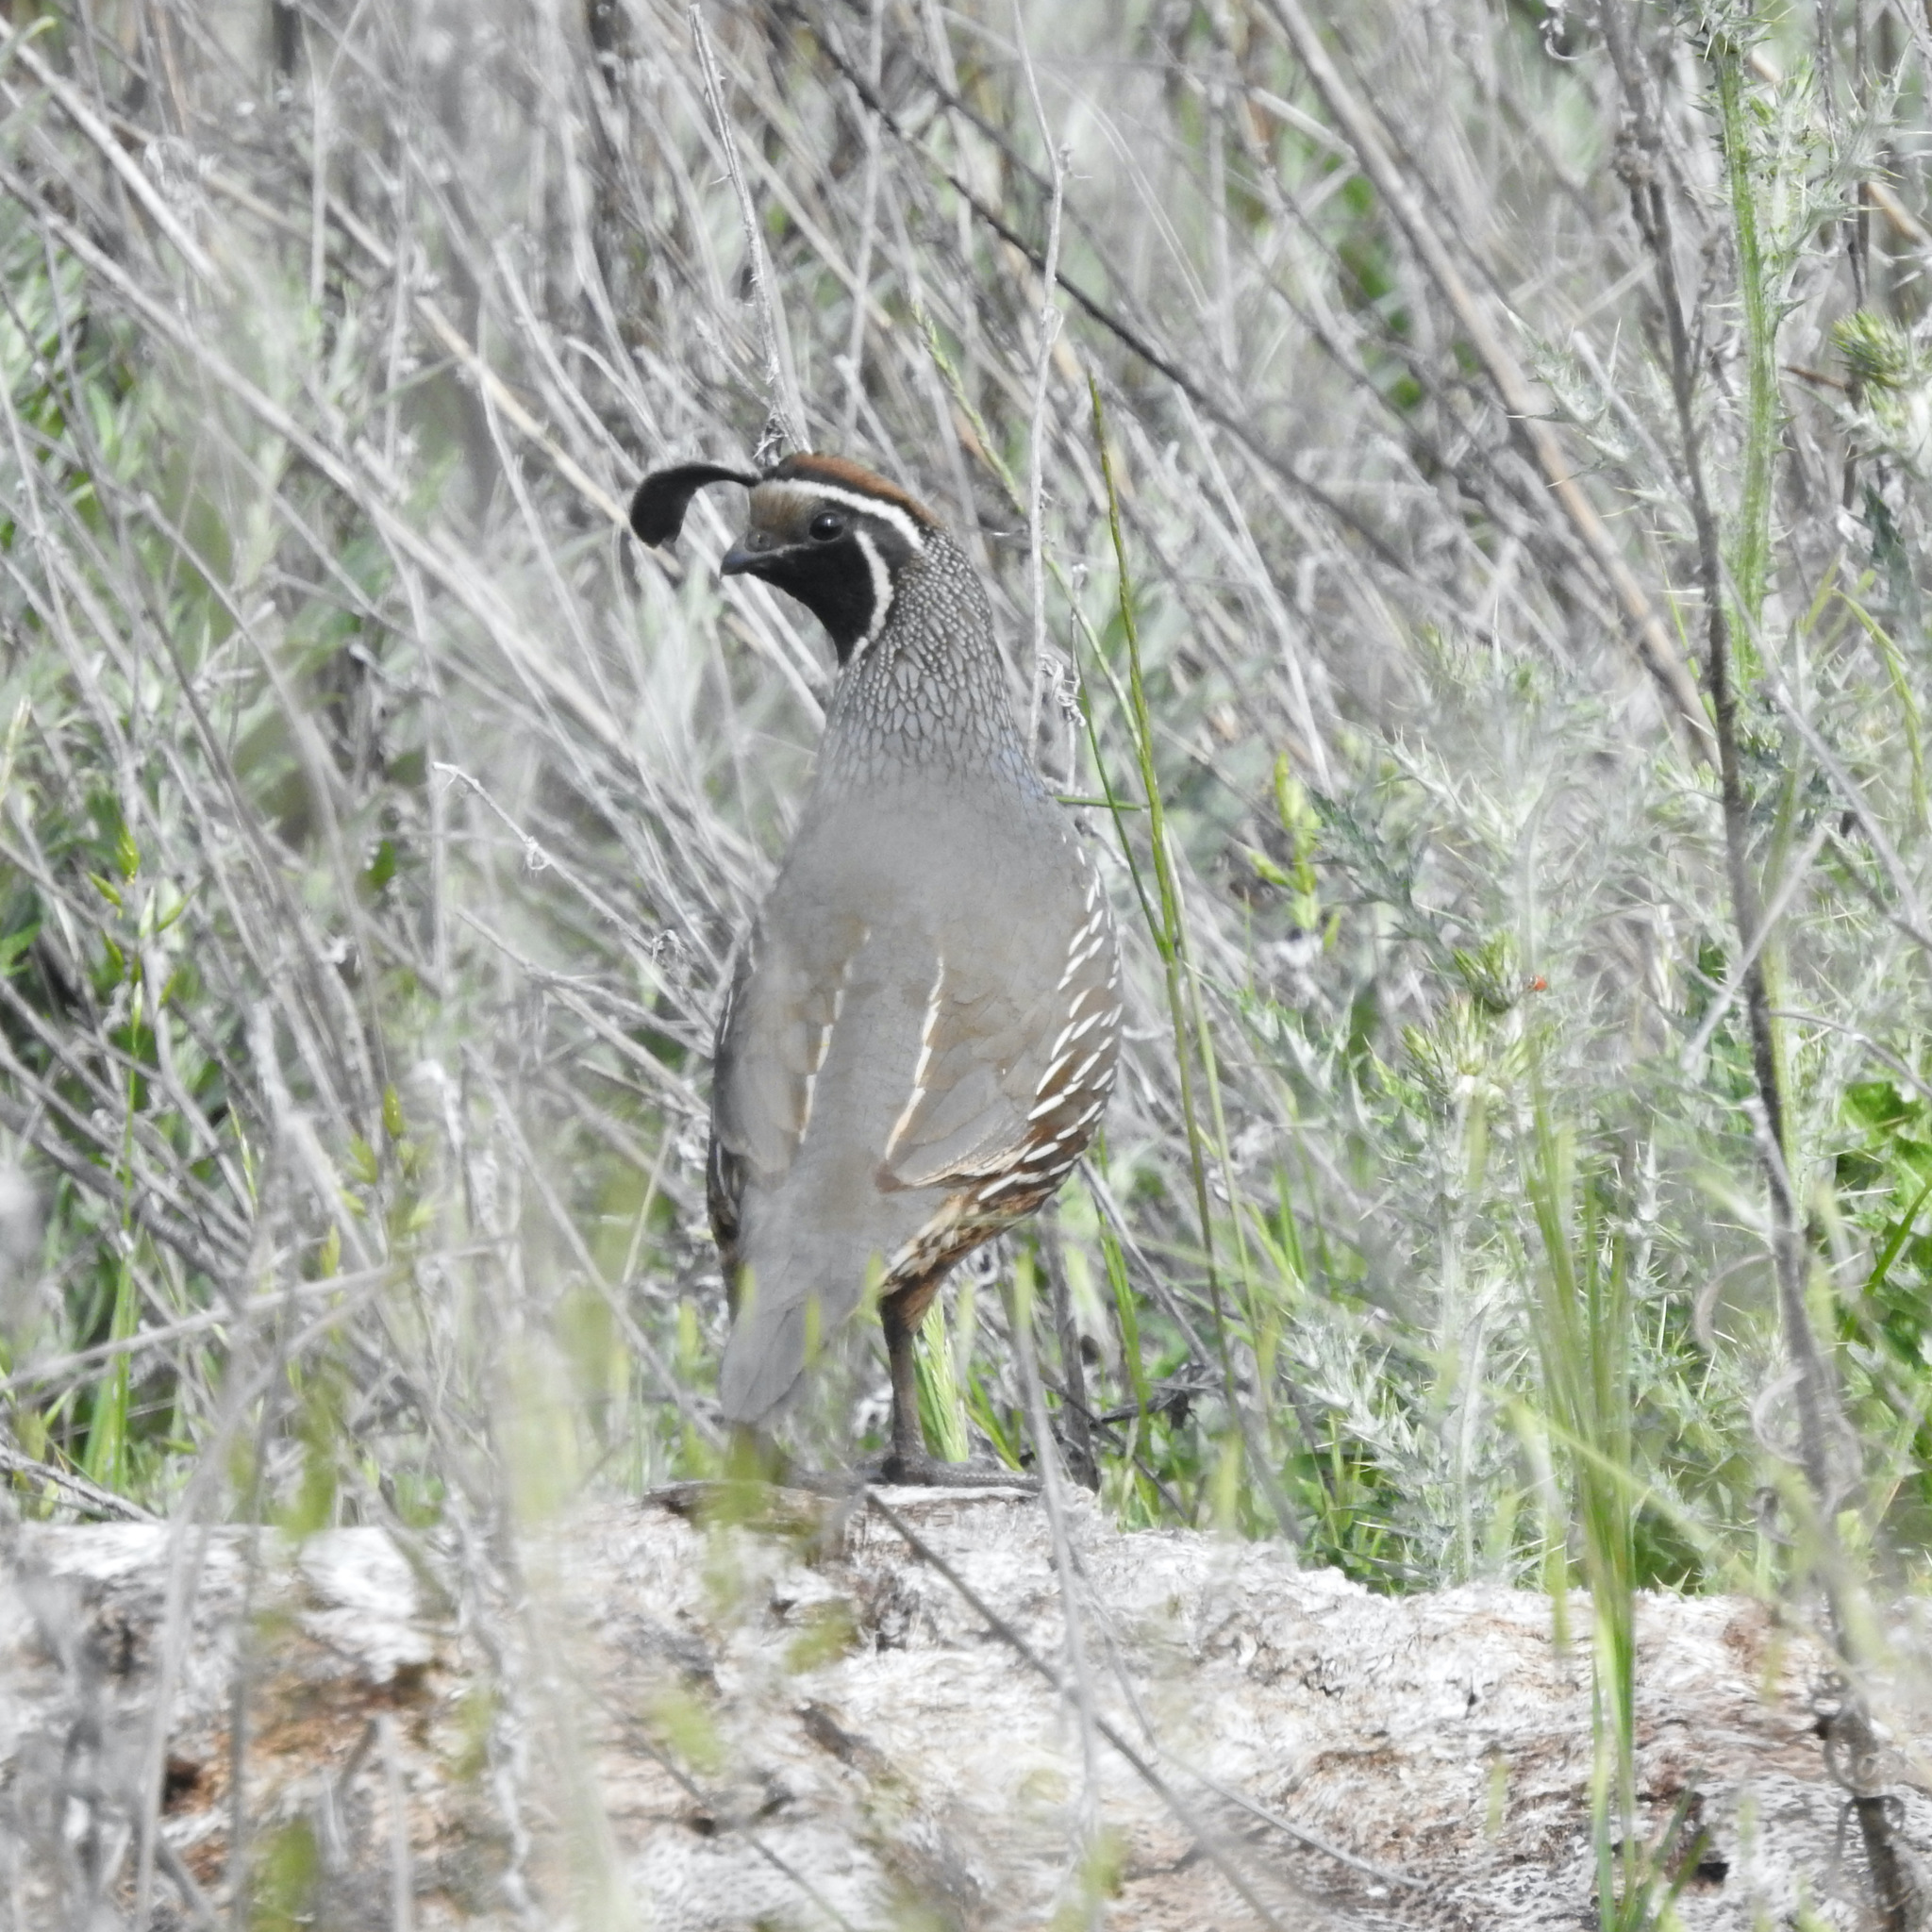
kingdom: Animalia
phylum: Chordata
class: Aves
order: Galliformes
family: Odontophoridae
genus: Callipepla
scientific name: Callipepla californica
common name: California quail
